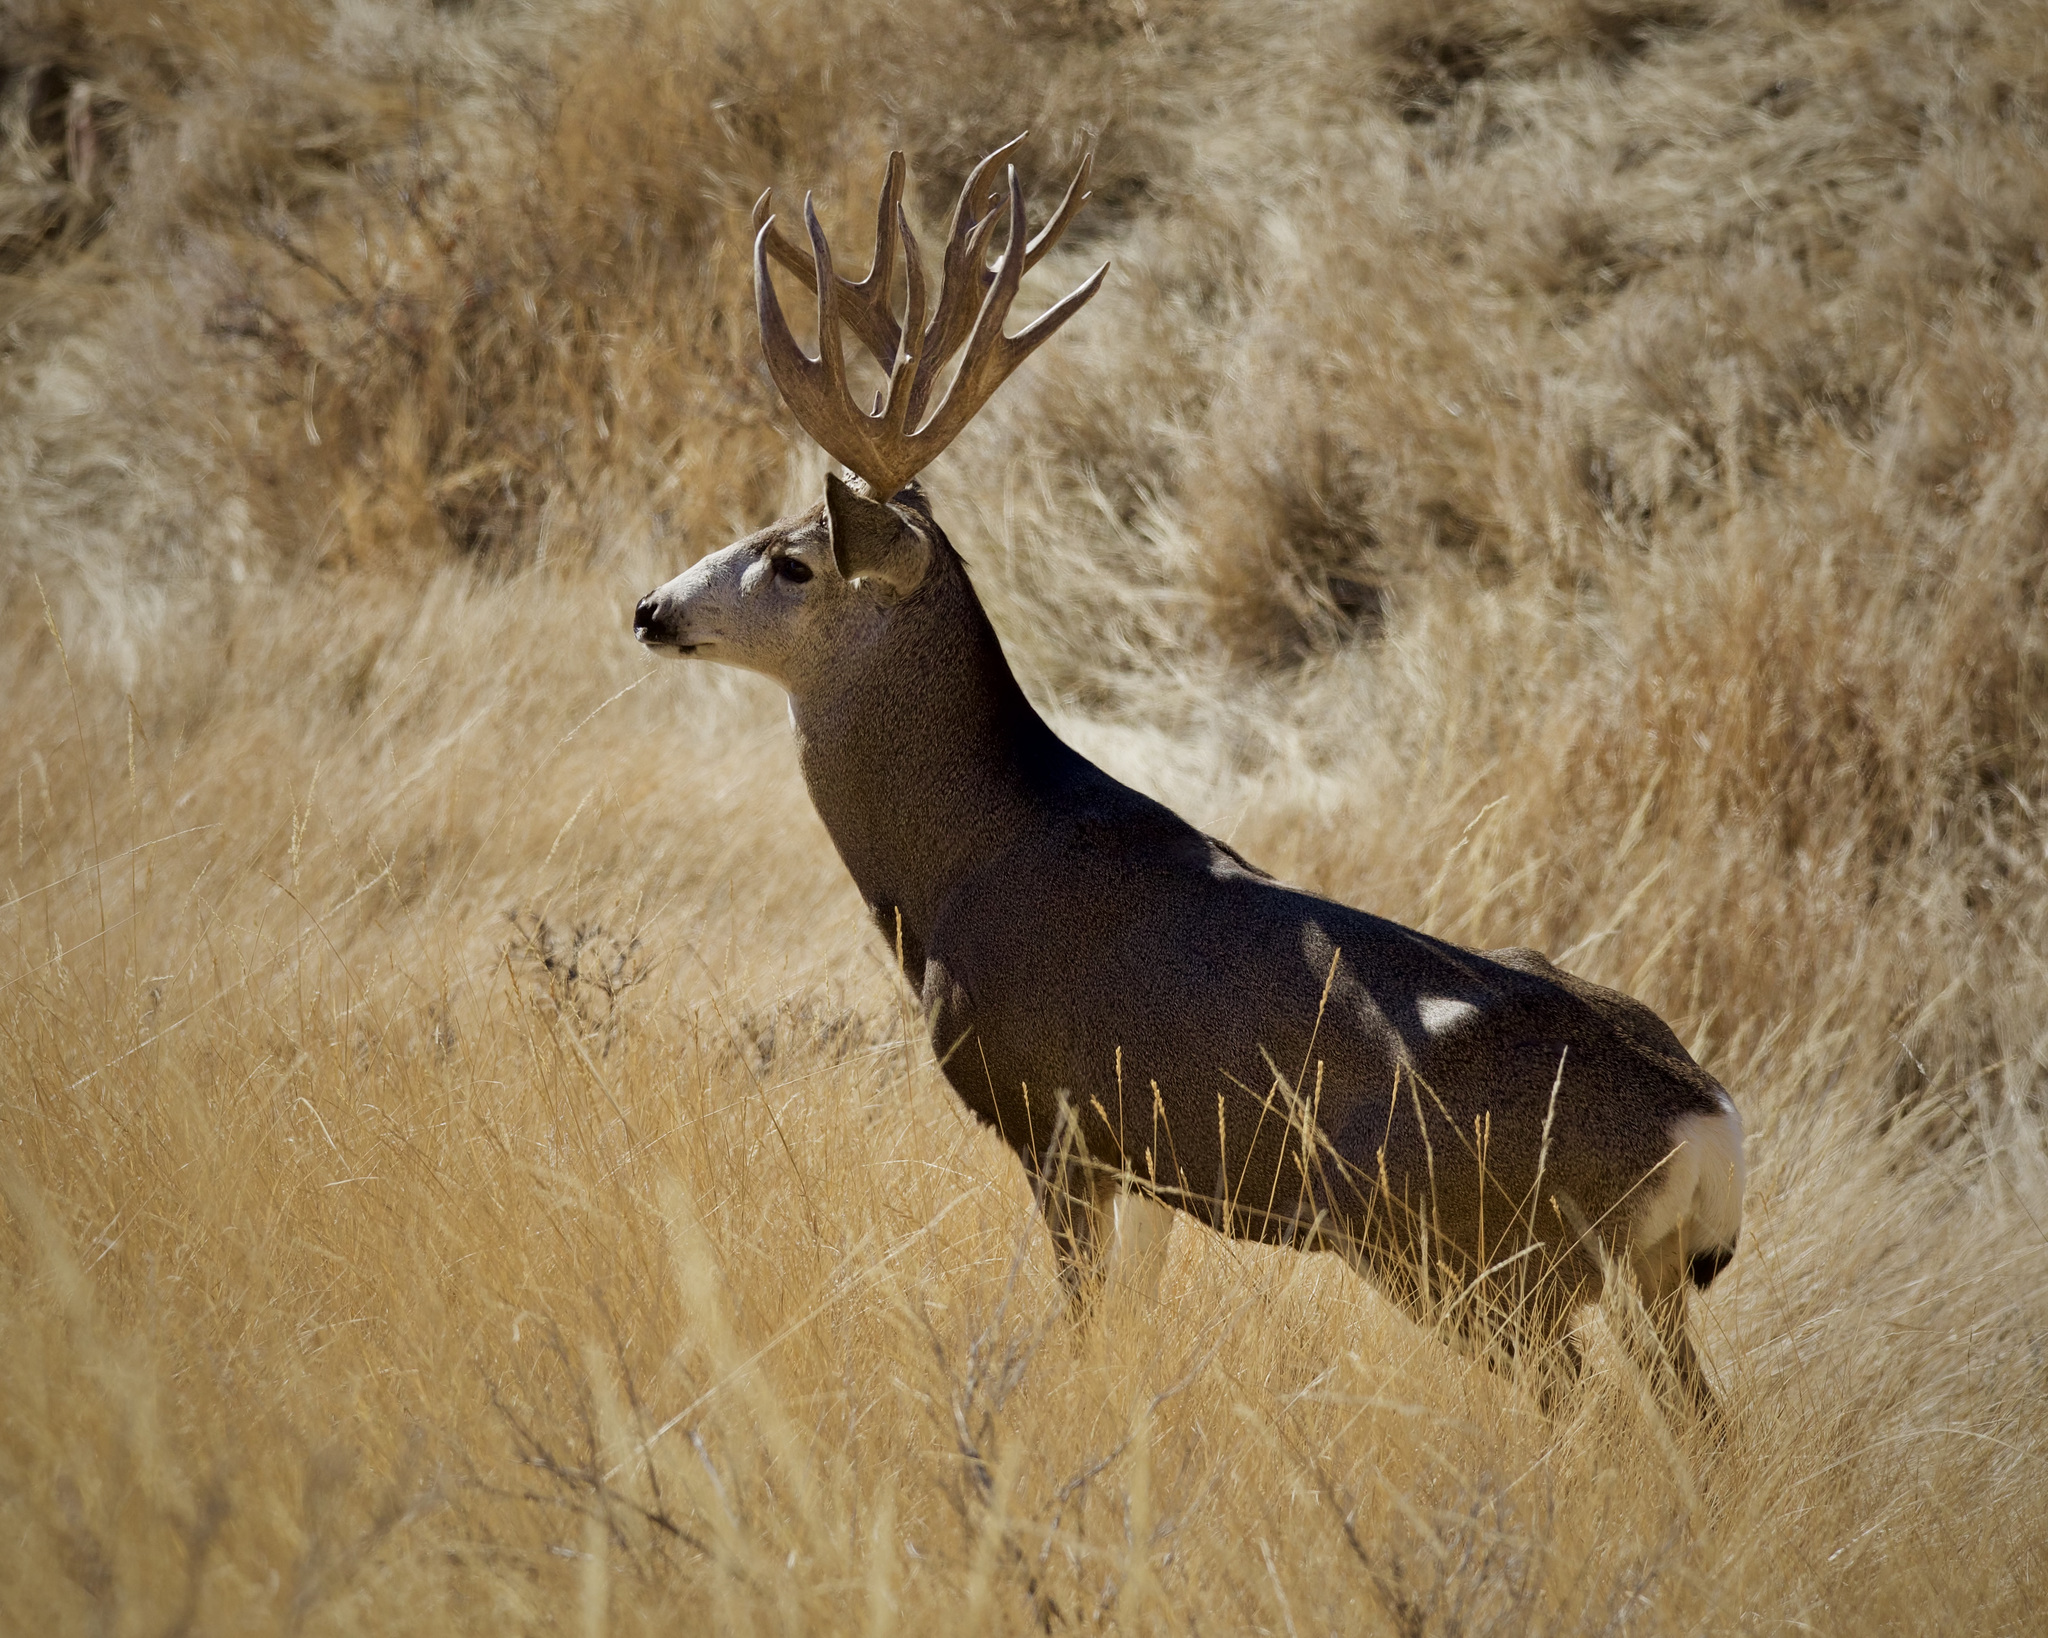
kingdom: Animalia
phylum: Chordata
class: Mammalia
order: Artiodactyla
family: Cervidae
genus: Odocoileus
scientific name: Odocoileus hemionus
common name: Mule deer
